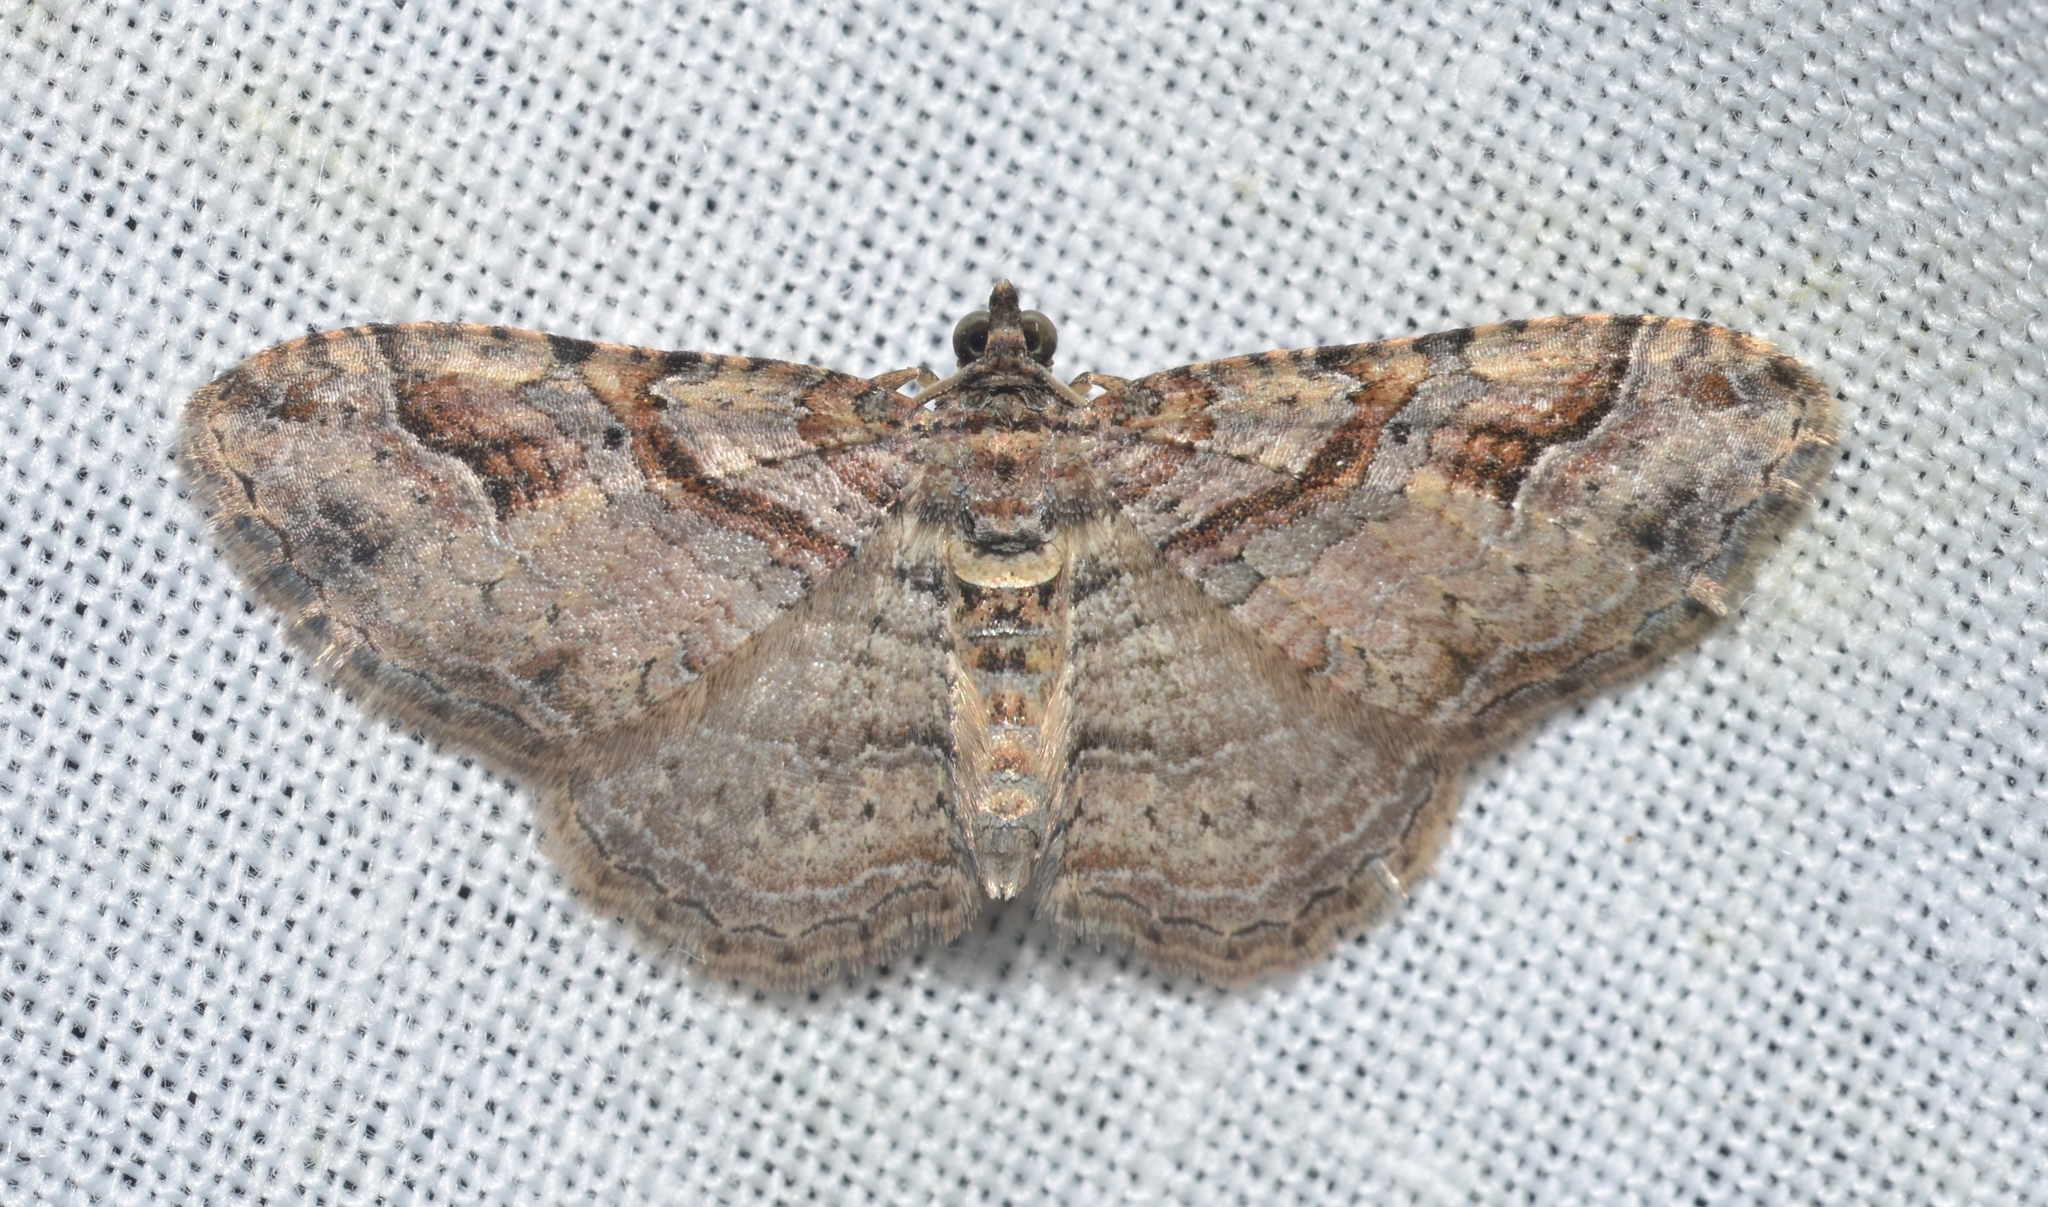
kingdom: Animalia
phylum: Arthropoda
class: Insecta
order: Lepidoptera
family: Geometridae
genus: Costaconvexa
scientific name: Costaconvexa centrostrigaria
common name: Bent-line carpet
